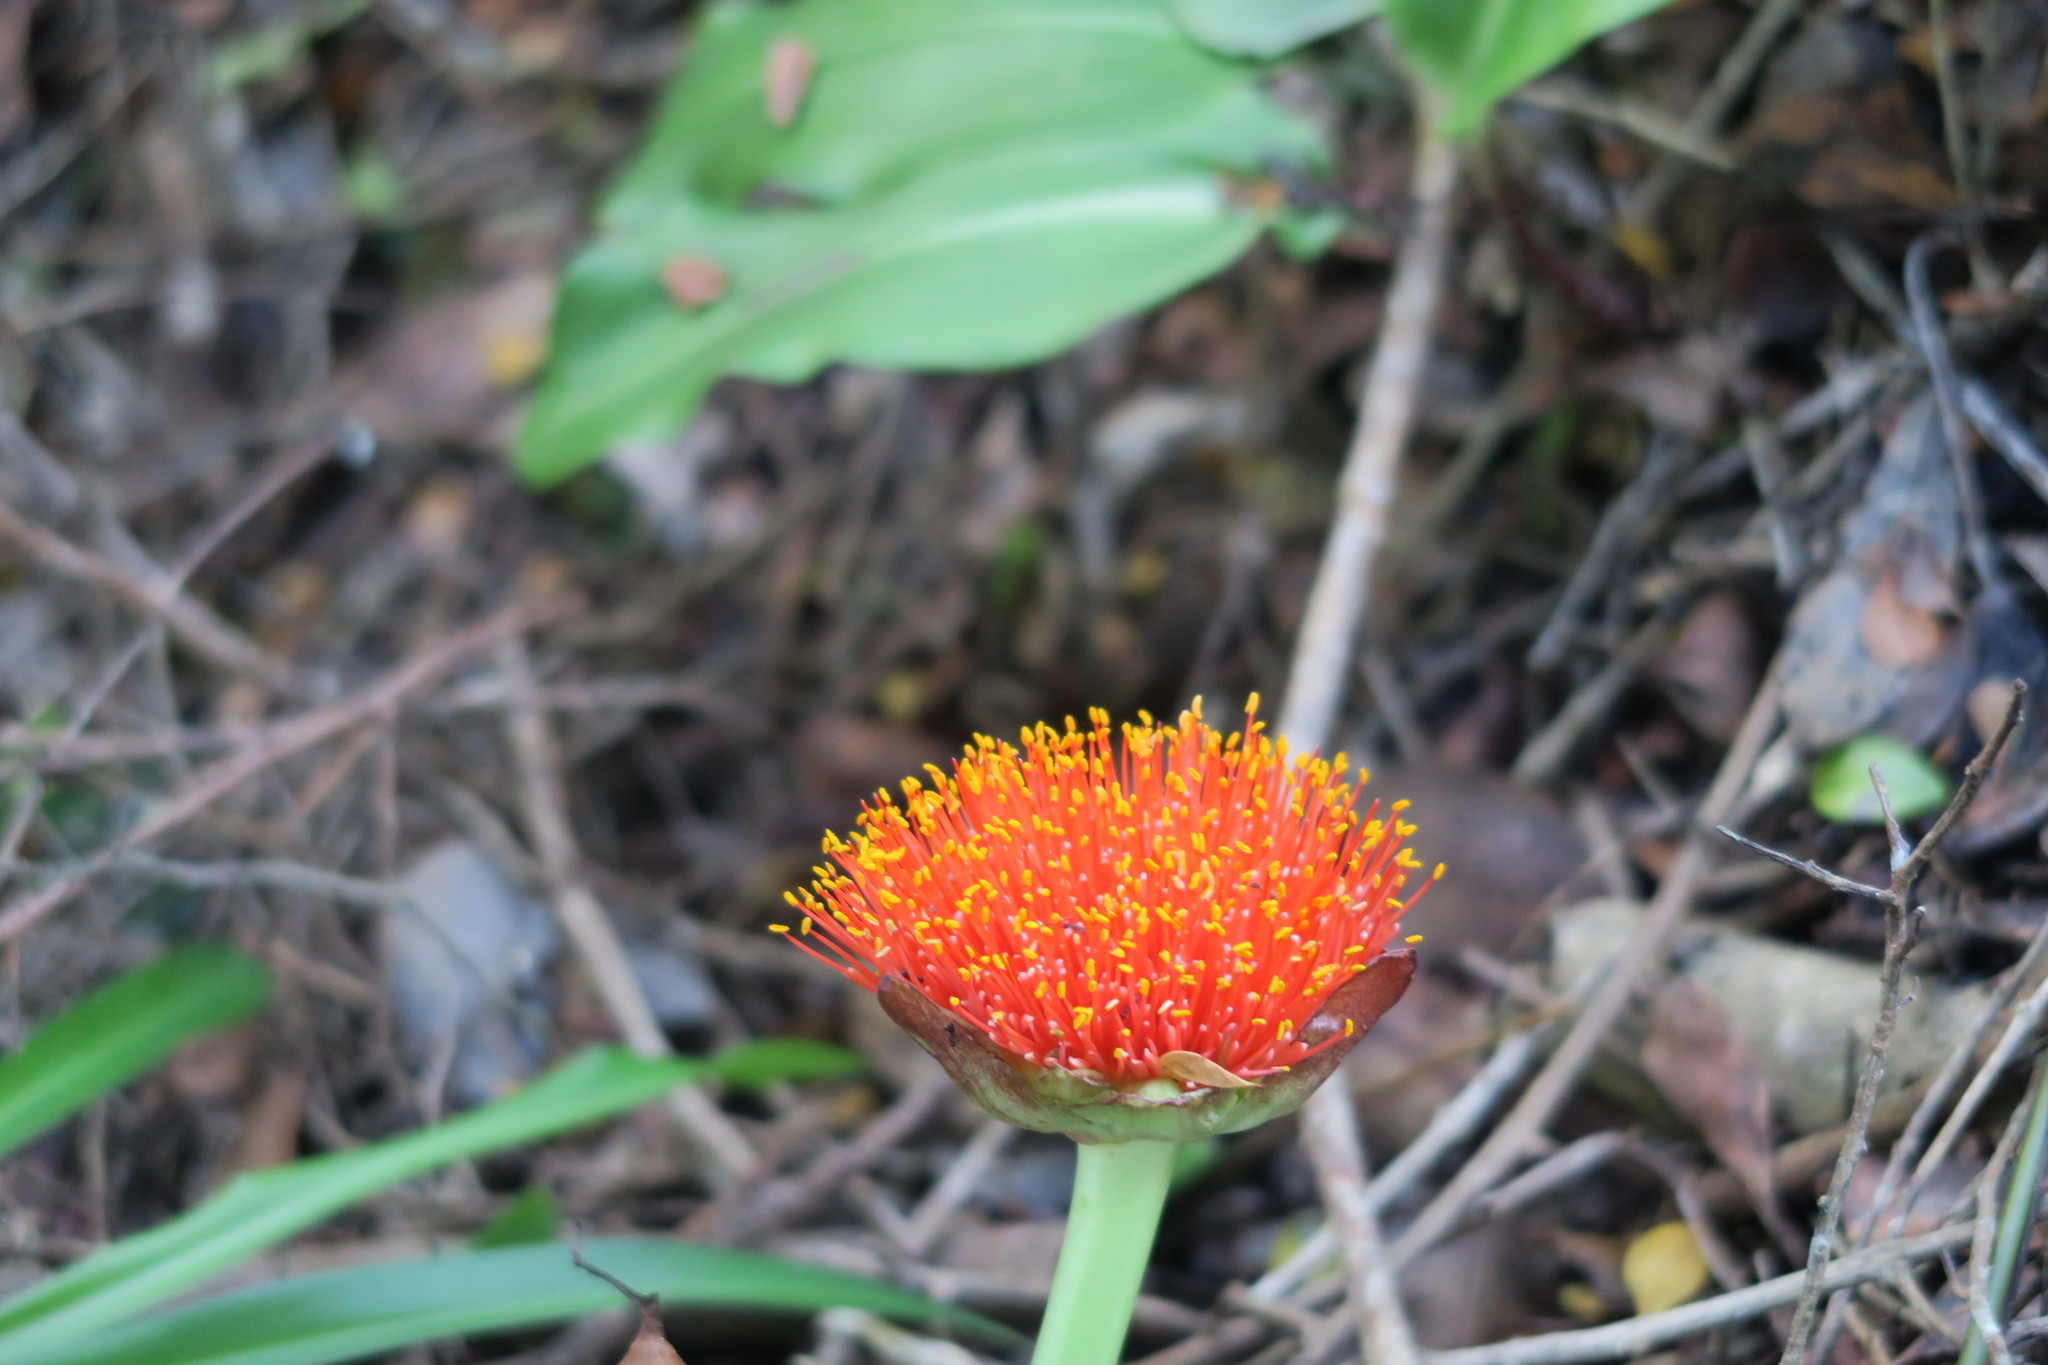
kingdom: Plantae
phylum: Tracheophyta
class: Liliopsida
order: Asparagales
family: Amaryllidaceae
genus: Scadoxus
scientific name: Scadoxus puniceus
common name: Royal-paintbrush
